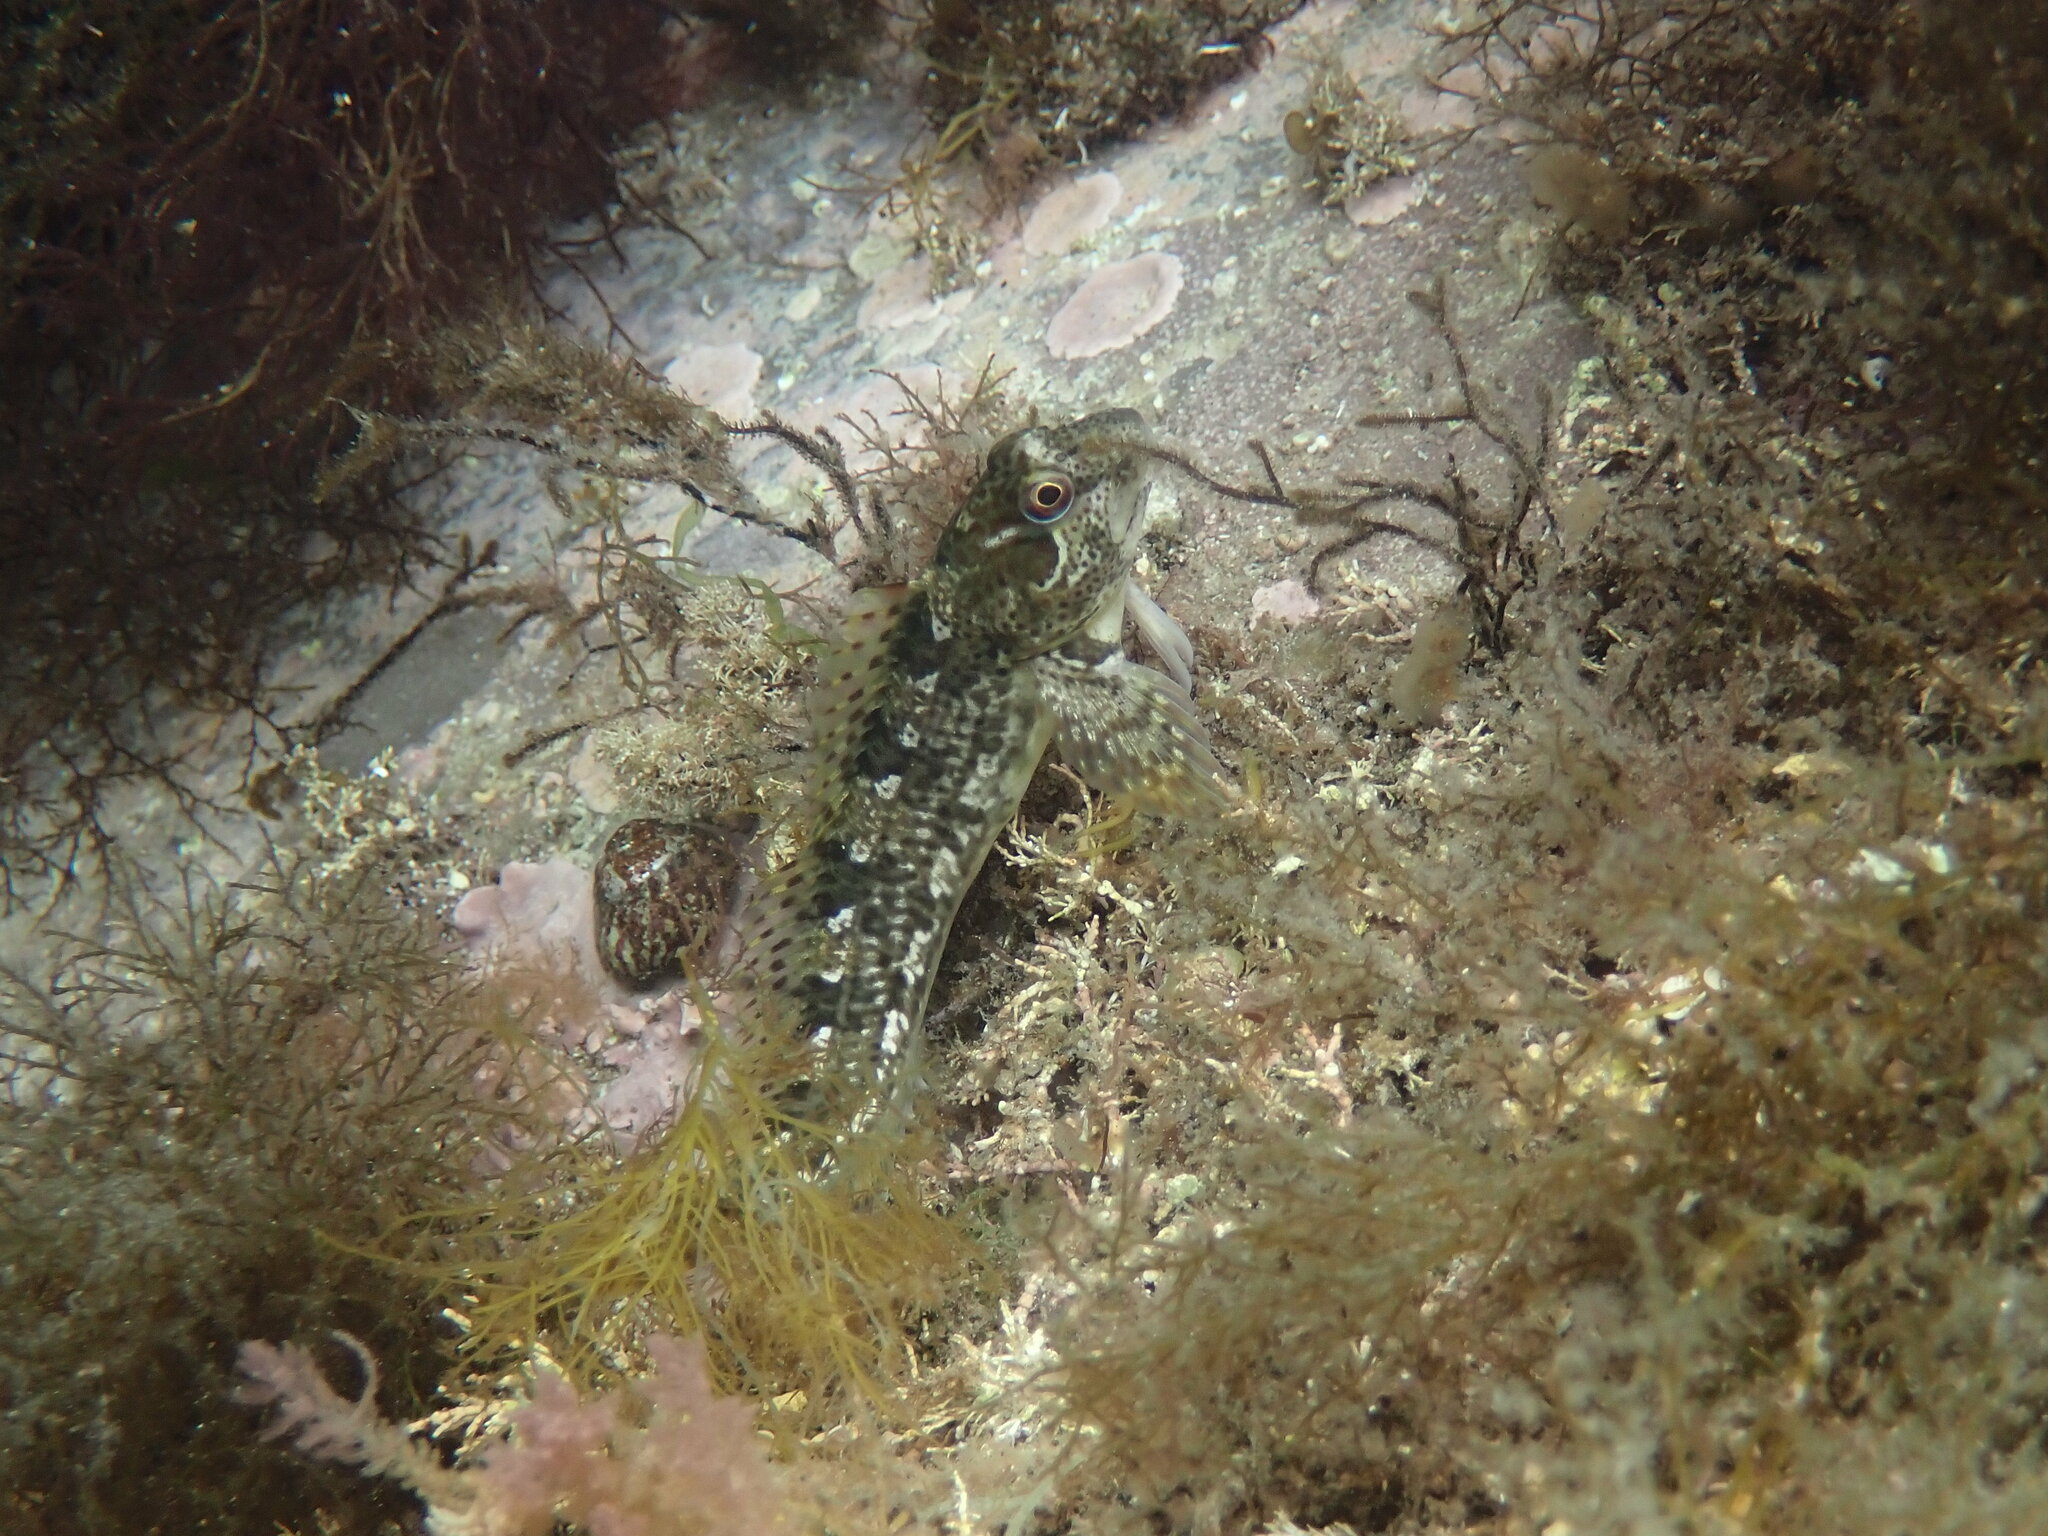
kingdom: Animalia
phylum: Chordata
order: Perciformes
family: Blenniidae
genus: Lipophrys
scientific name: Lipophrys pholis
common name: Shanny
